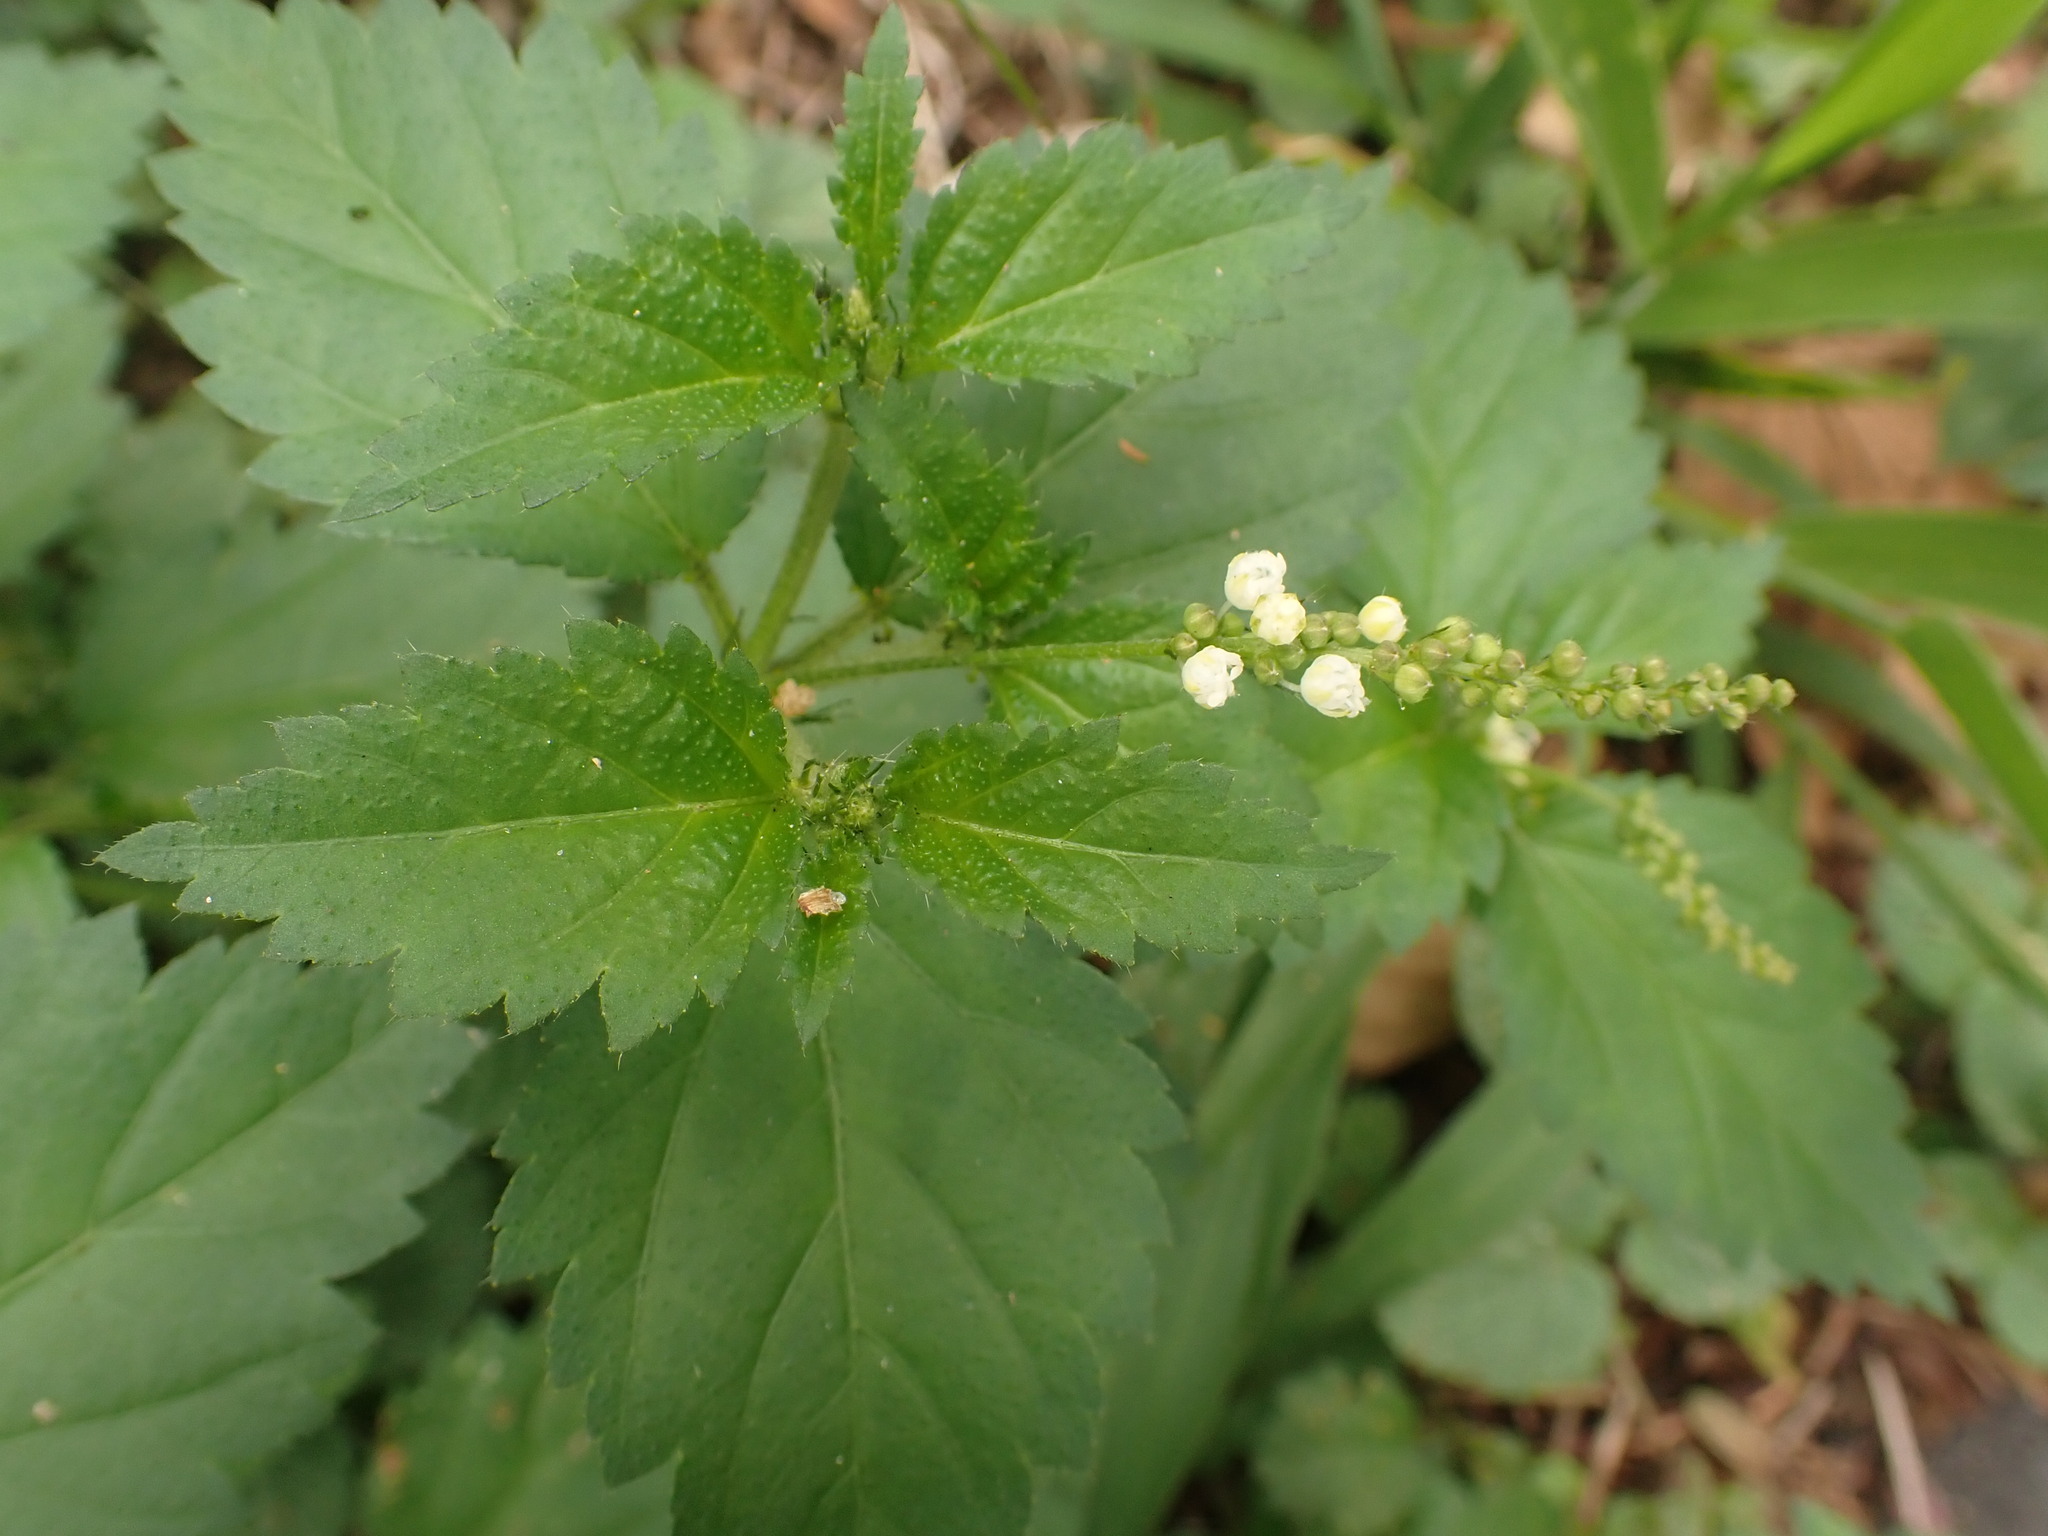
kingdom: Plantae
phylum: Tracheophyta
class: Magnoliopsida
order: Malpighiales
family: Euphorbiaceae
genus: Croton
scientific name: Croton hirtus
